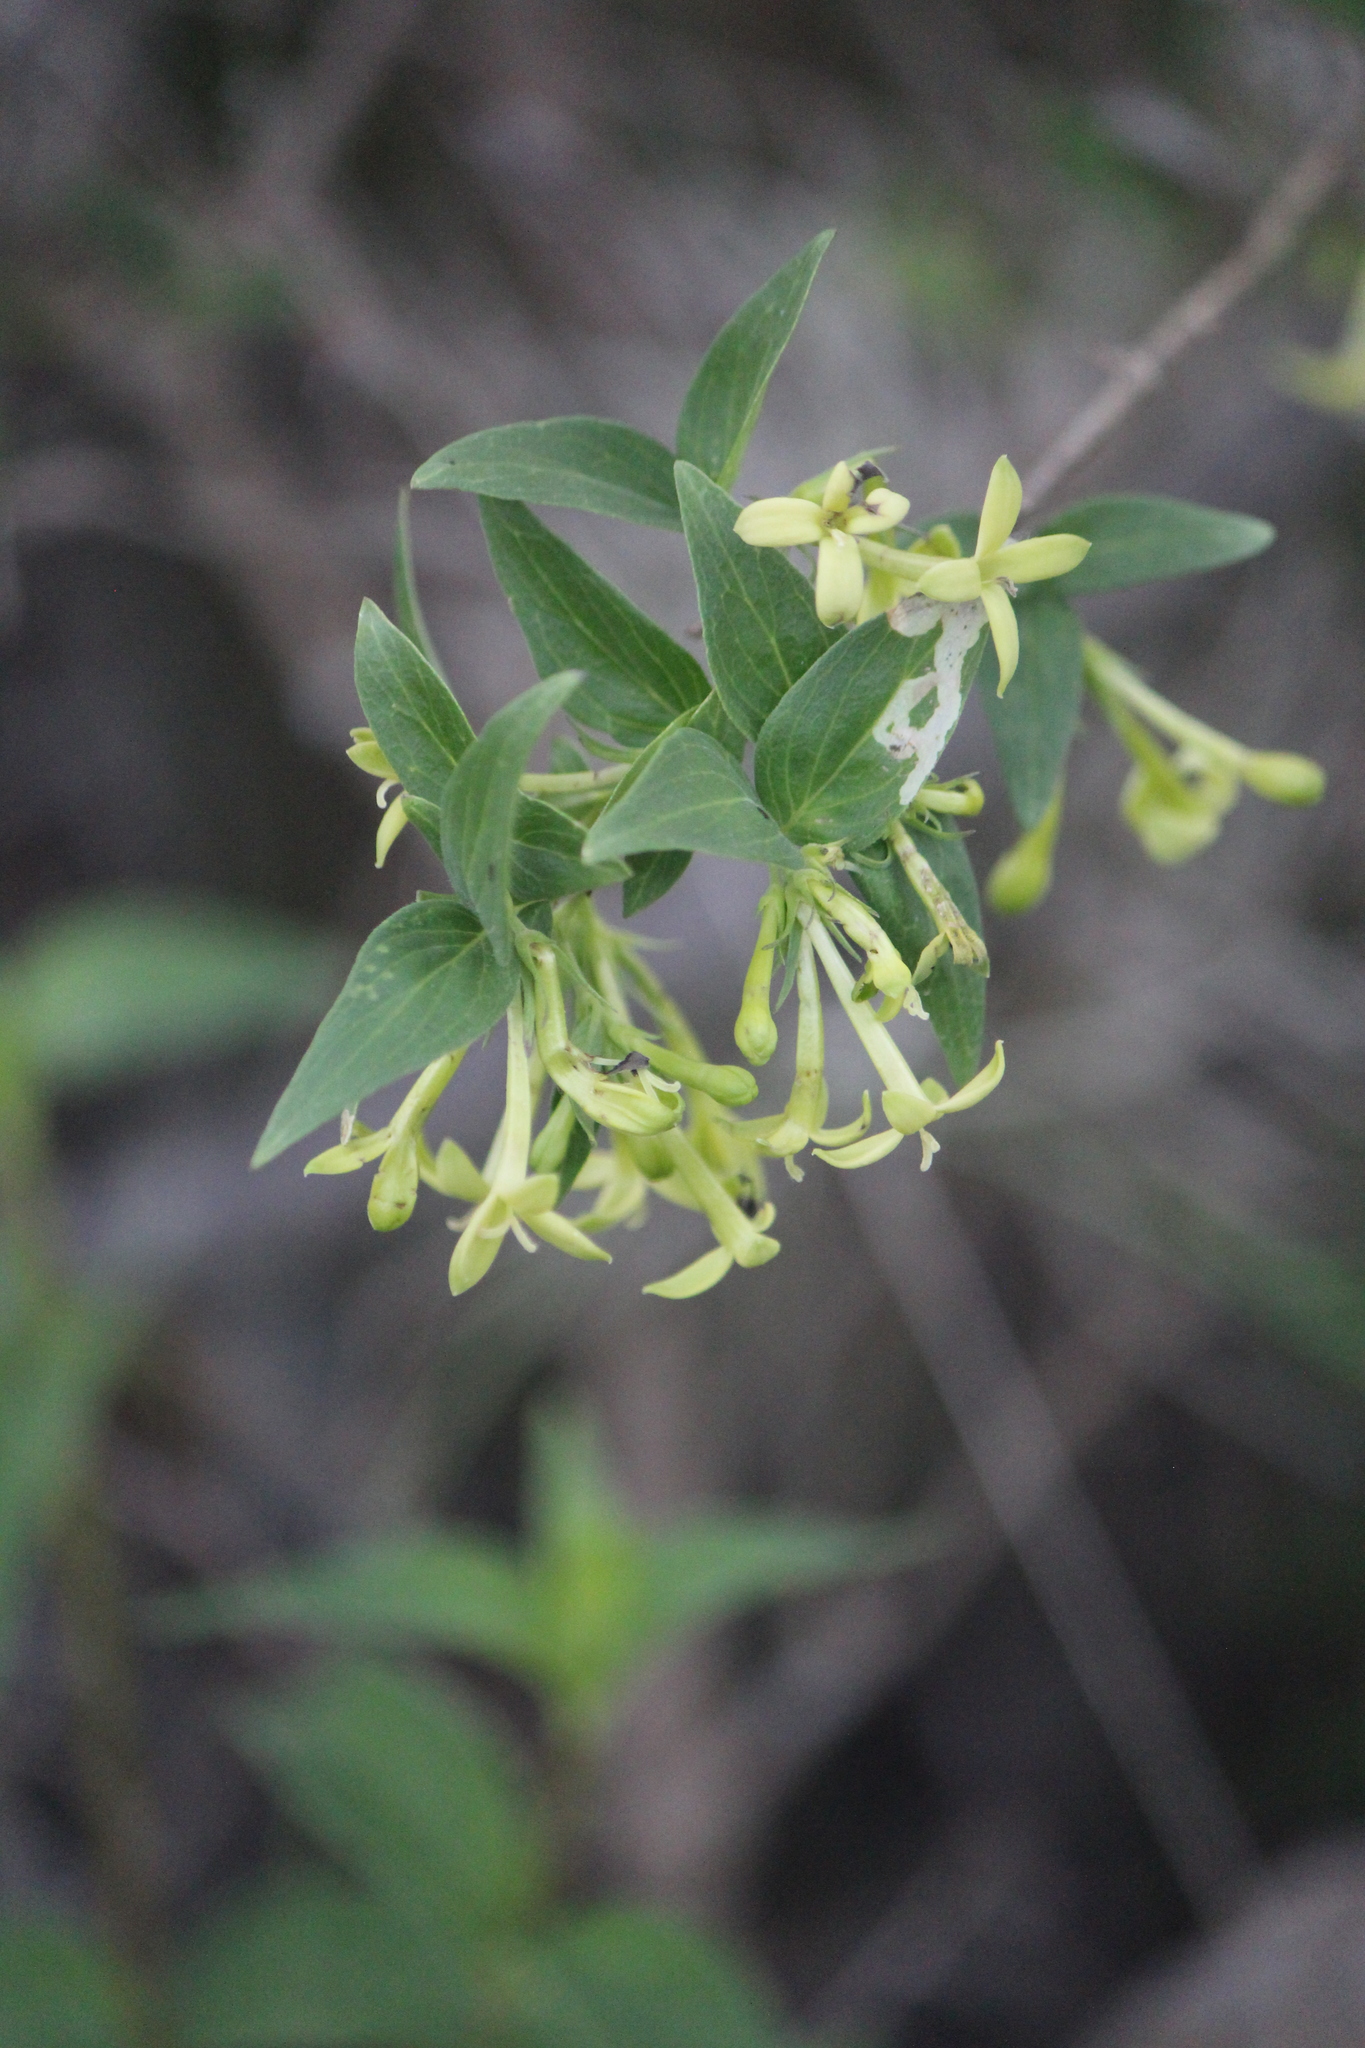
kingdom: Plantae
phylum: Tracheophyta
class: Magnoliopsida
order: Gentianales
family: Rubiaceae
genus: Bouvardia
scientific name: Bouvardia glabra
